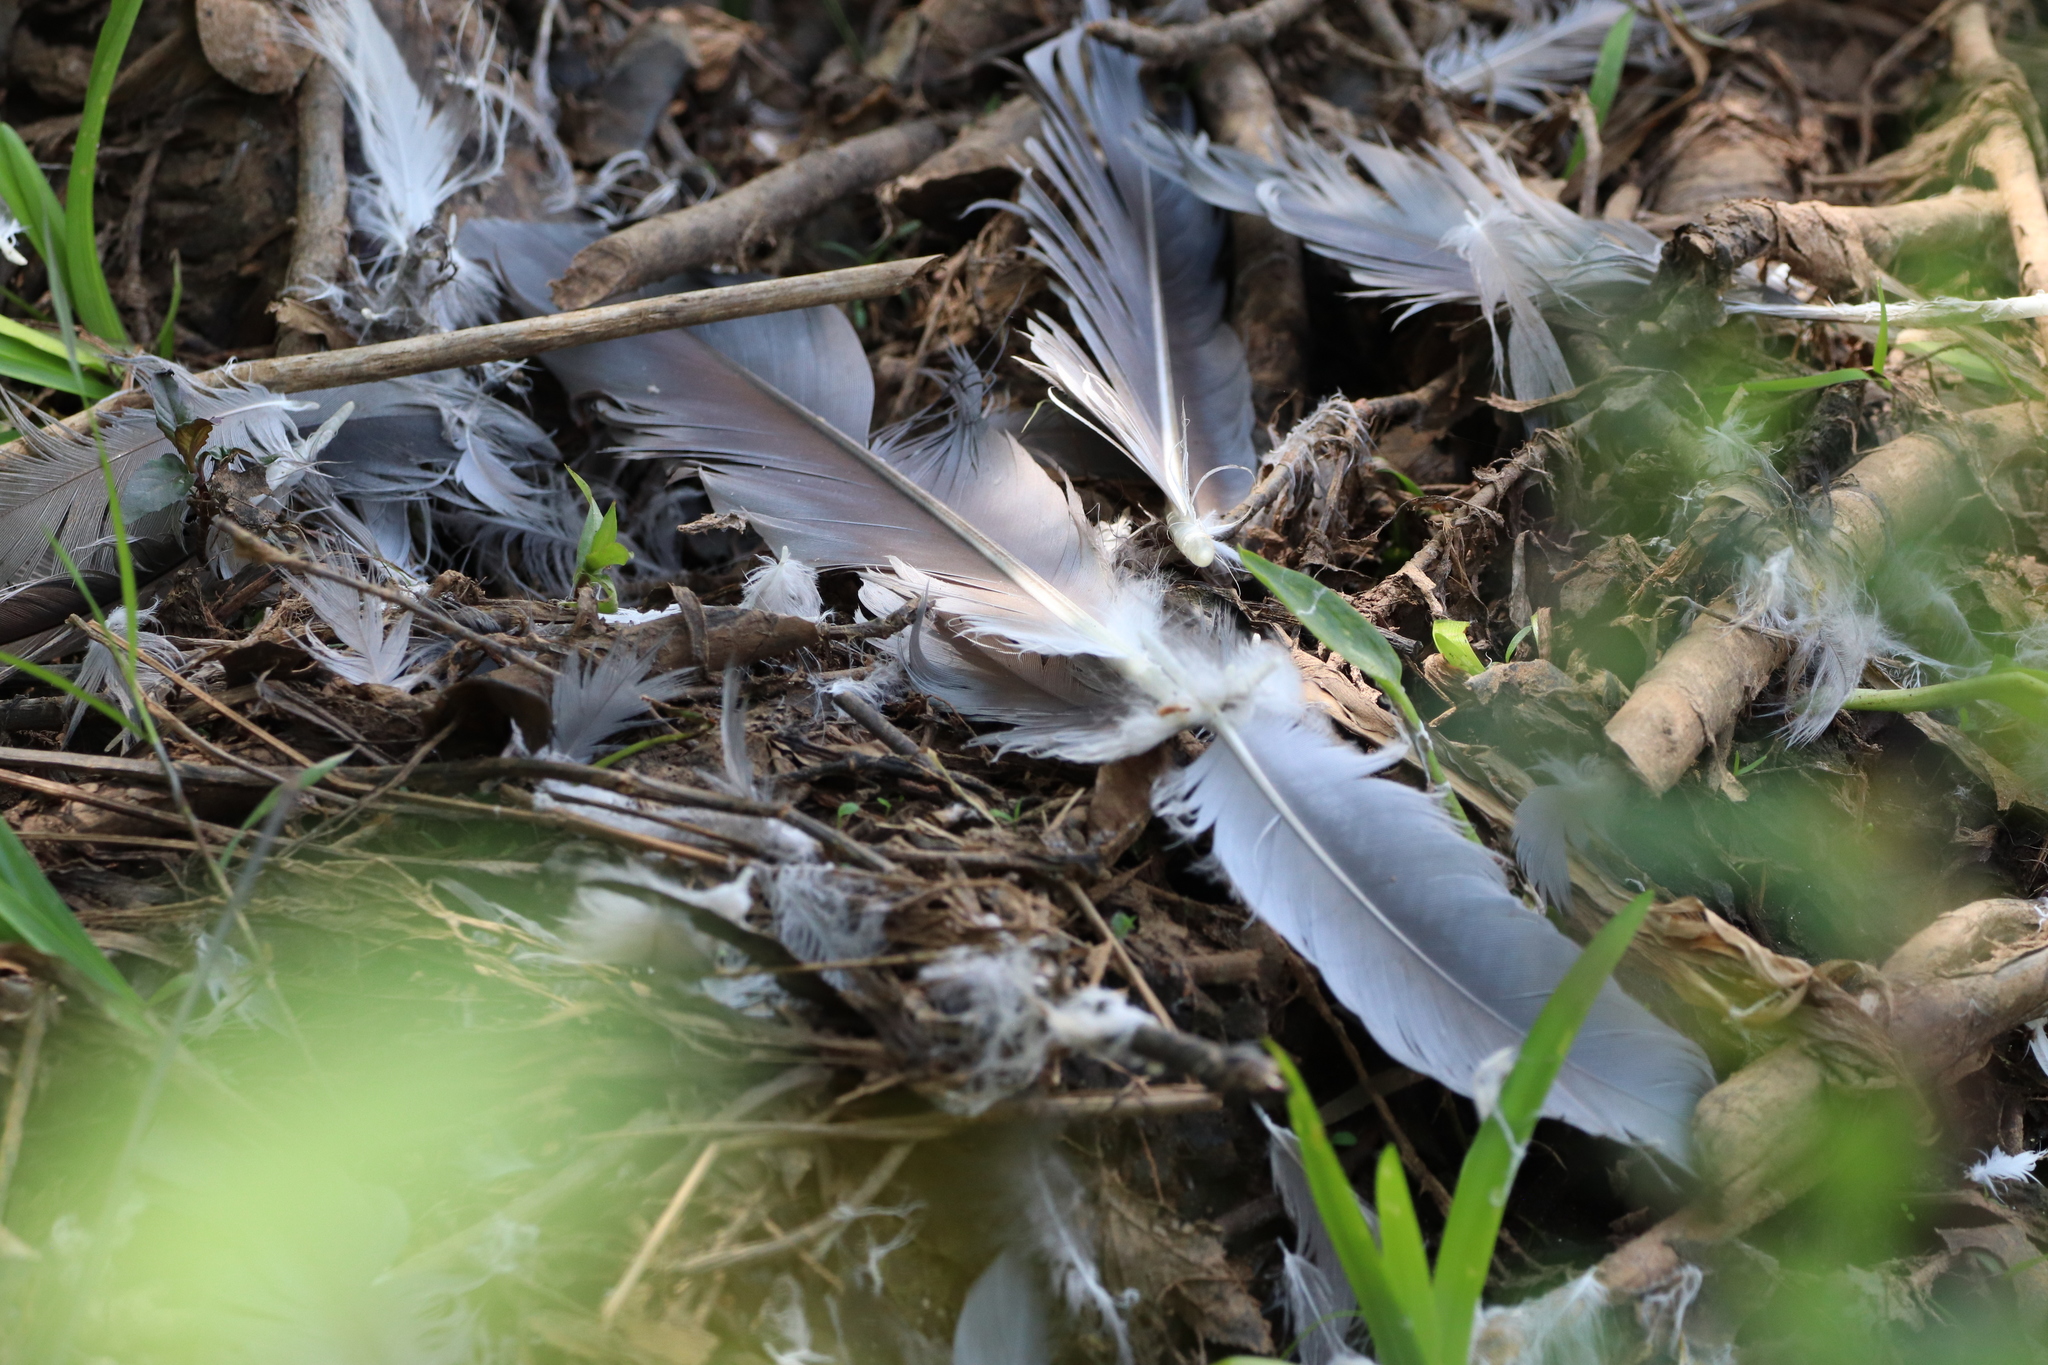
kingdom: Animalia
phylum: Chordata
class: Aves
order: Pelecaniformes
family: Ardeidae
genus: Ardea
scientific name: Ardea herodias
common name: Great blue heron
